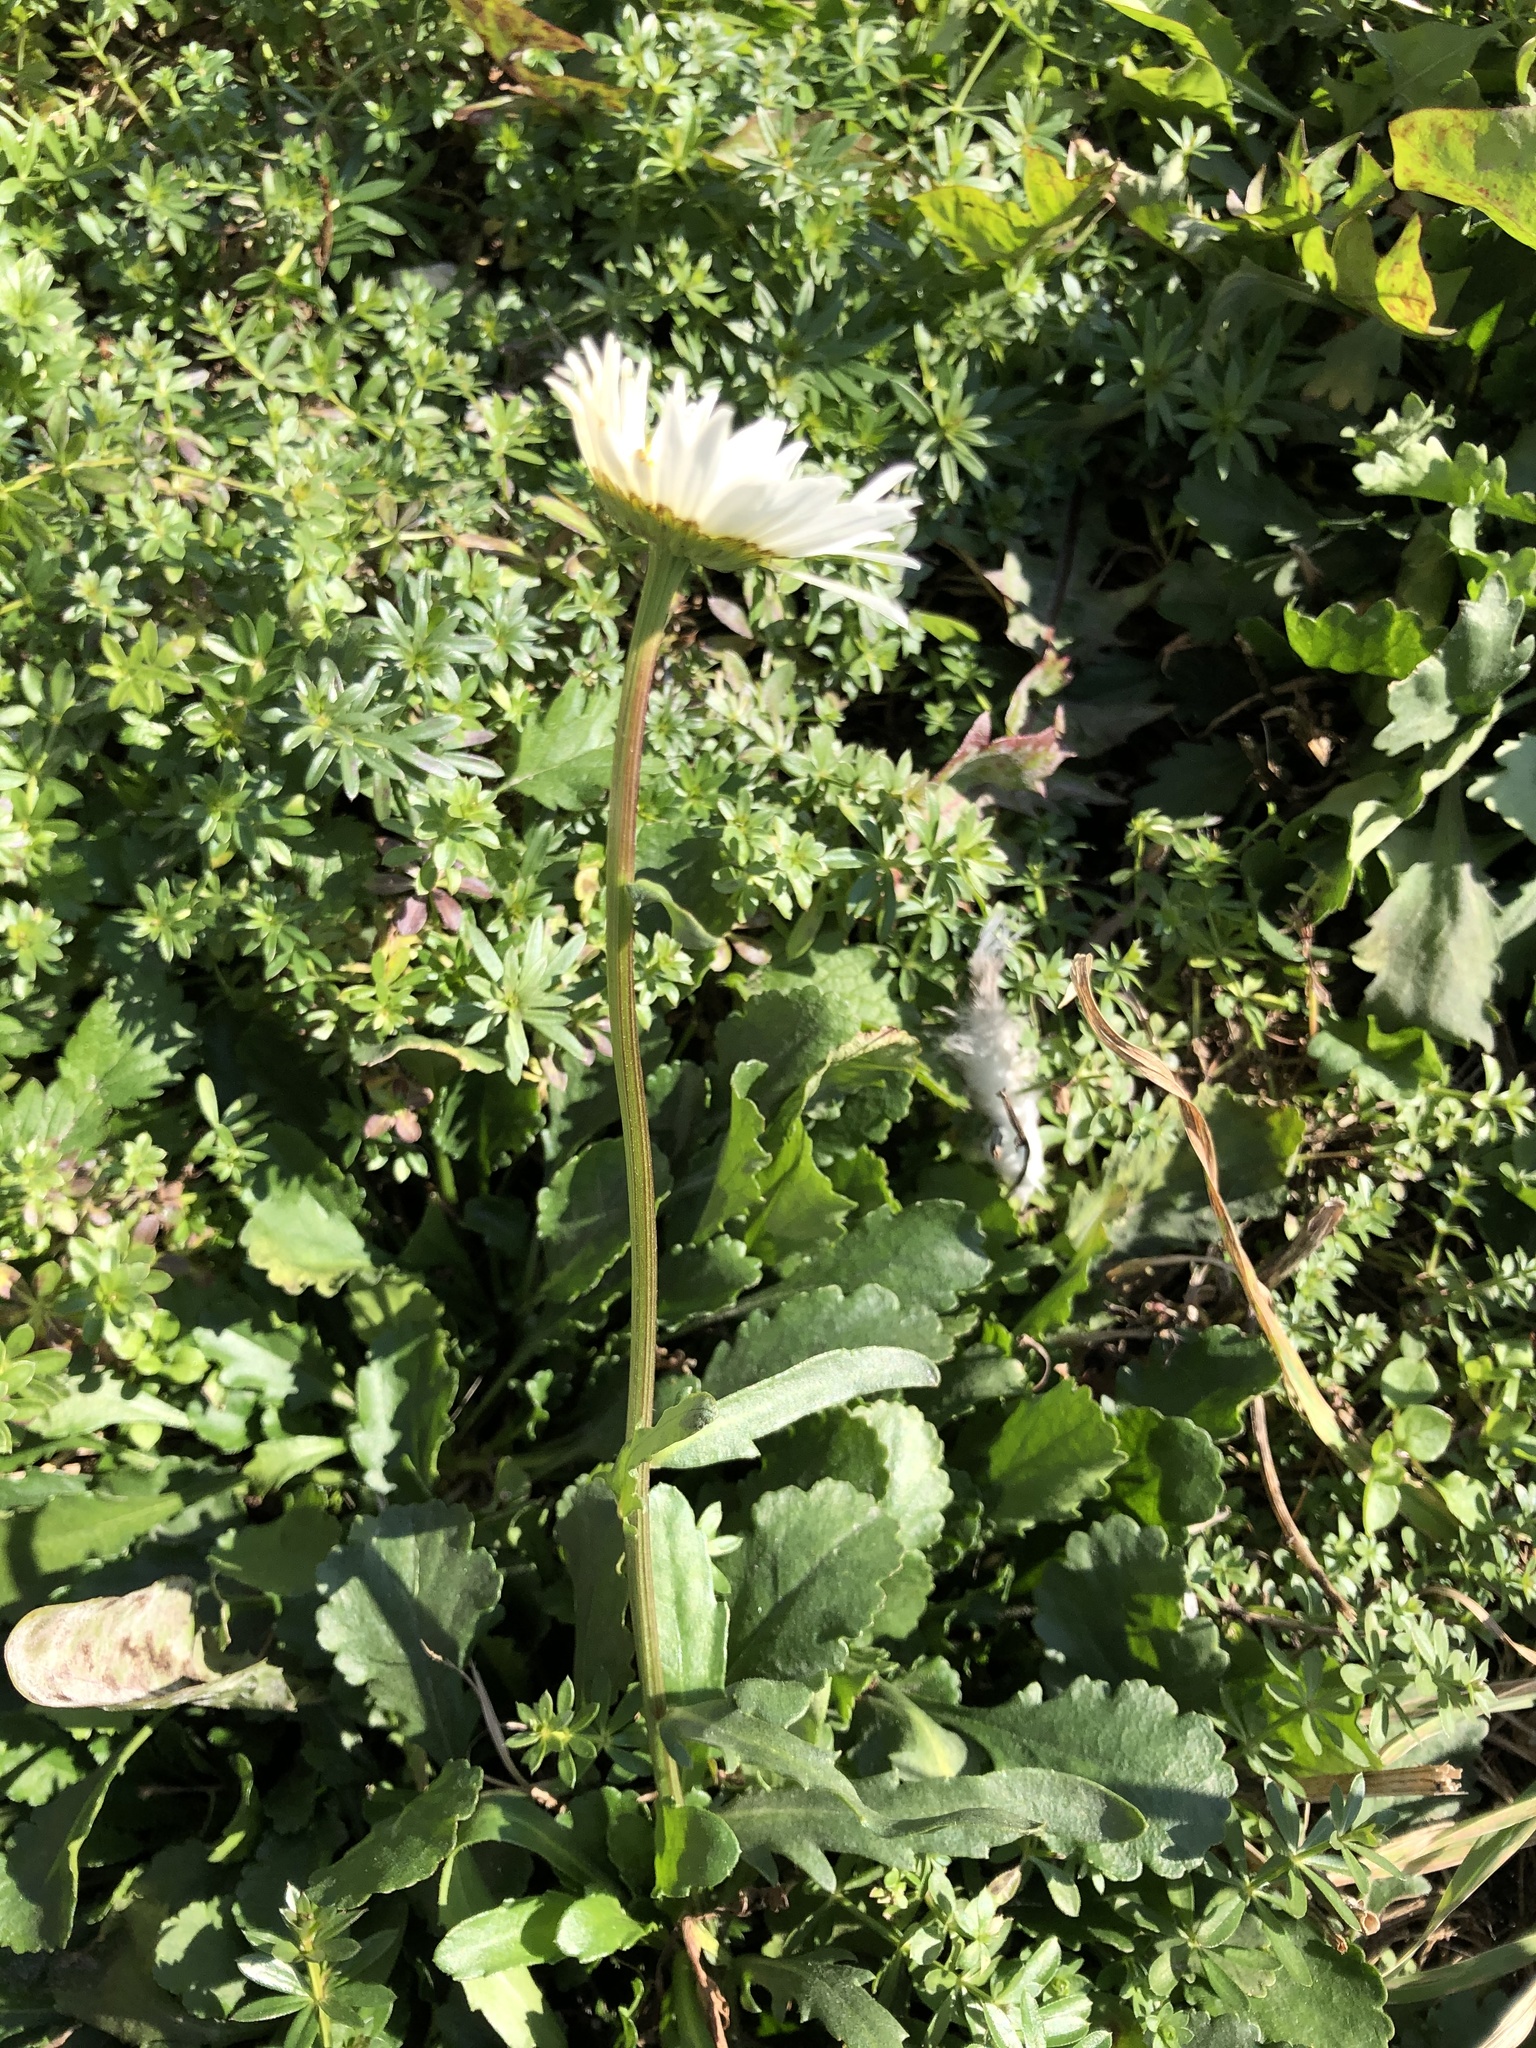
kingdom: Plantae
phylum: Tracheophyta
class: Magnoliopsida
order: Asterales
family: Asteraceae
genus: Leucanthemum
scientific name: Leucanthemum ircutianum
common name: Daisy
